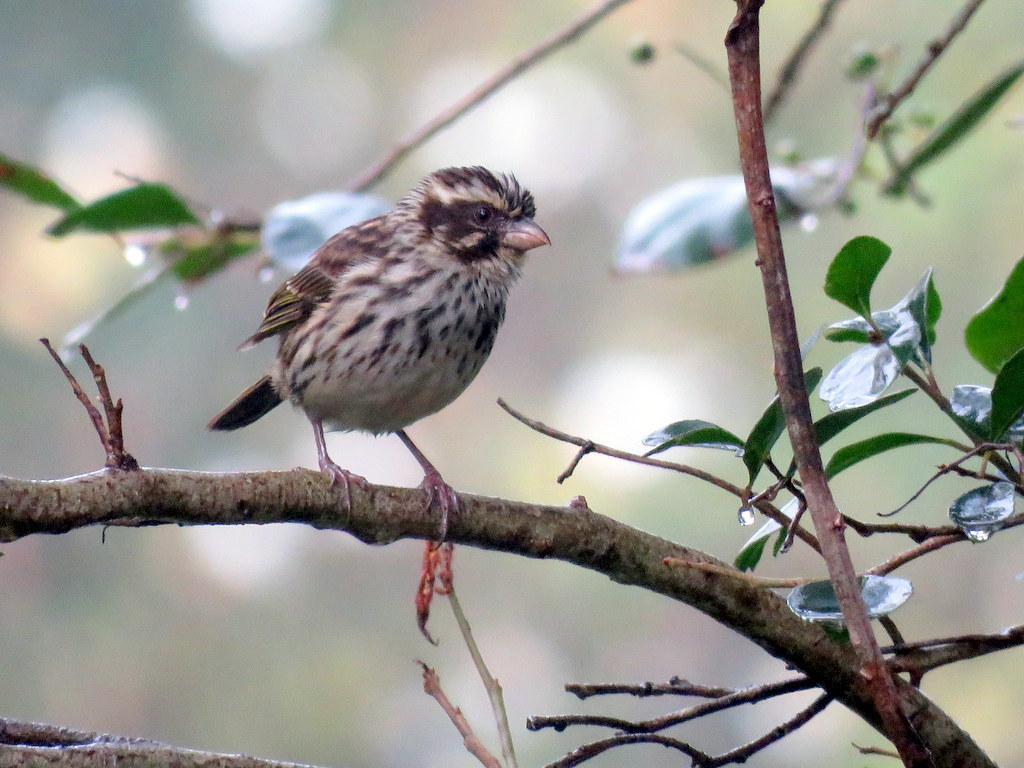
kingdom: Animalia
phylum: Chordata
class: Aves
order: Passeriformes
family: Fringillidae
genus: Crithagra
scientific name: Crithagra striolata
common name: Streaky seedeater
